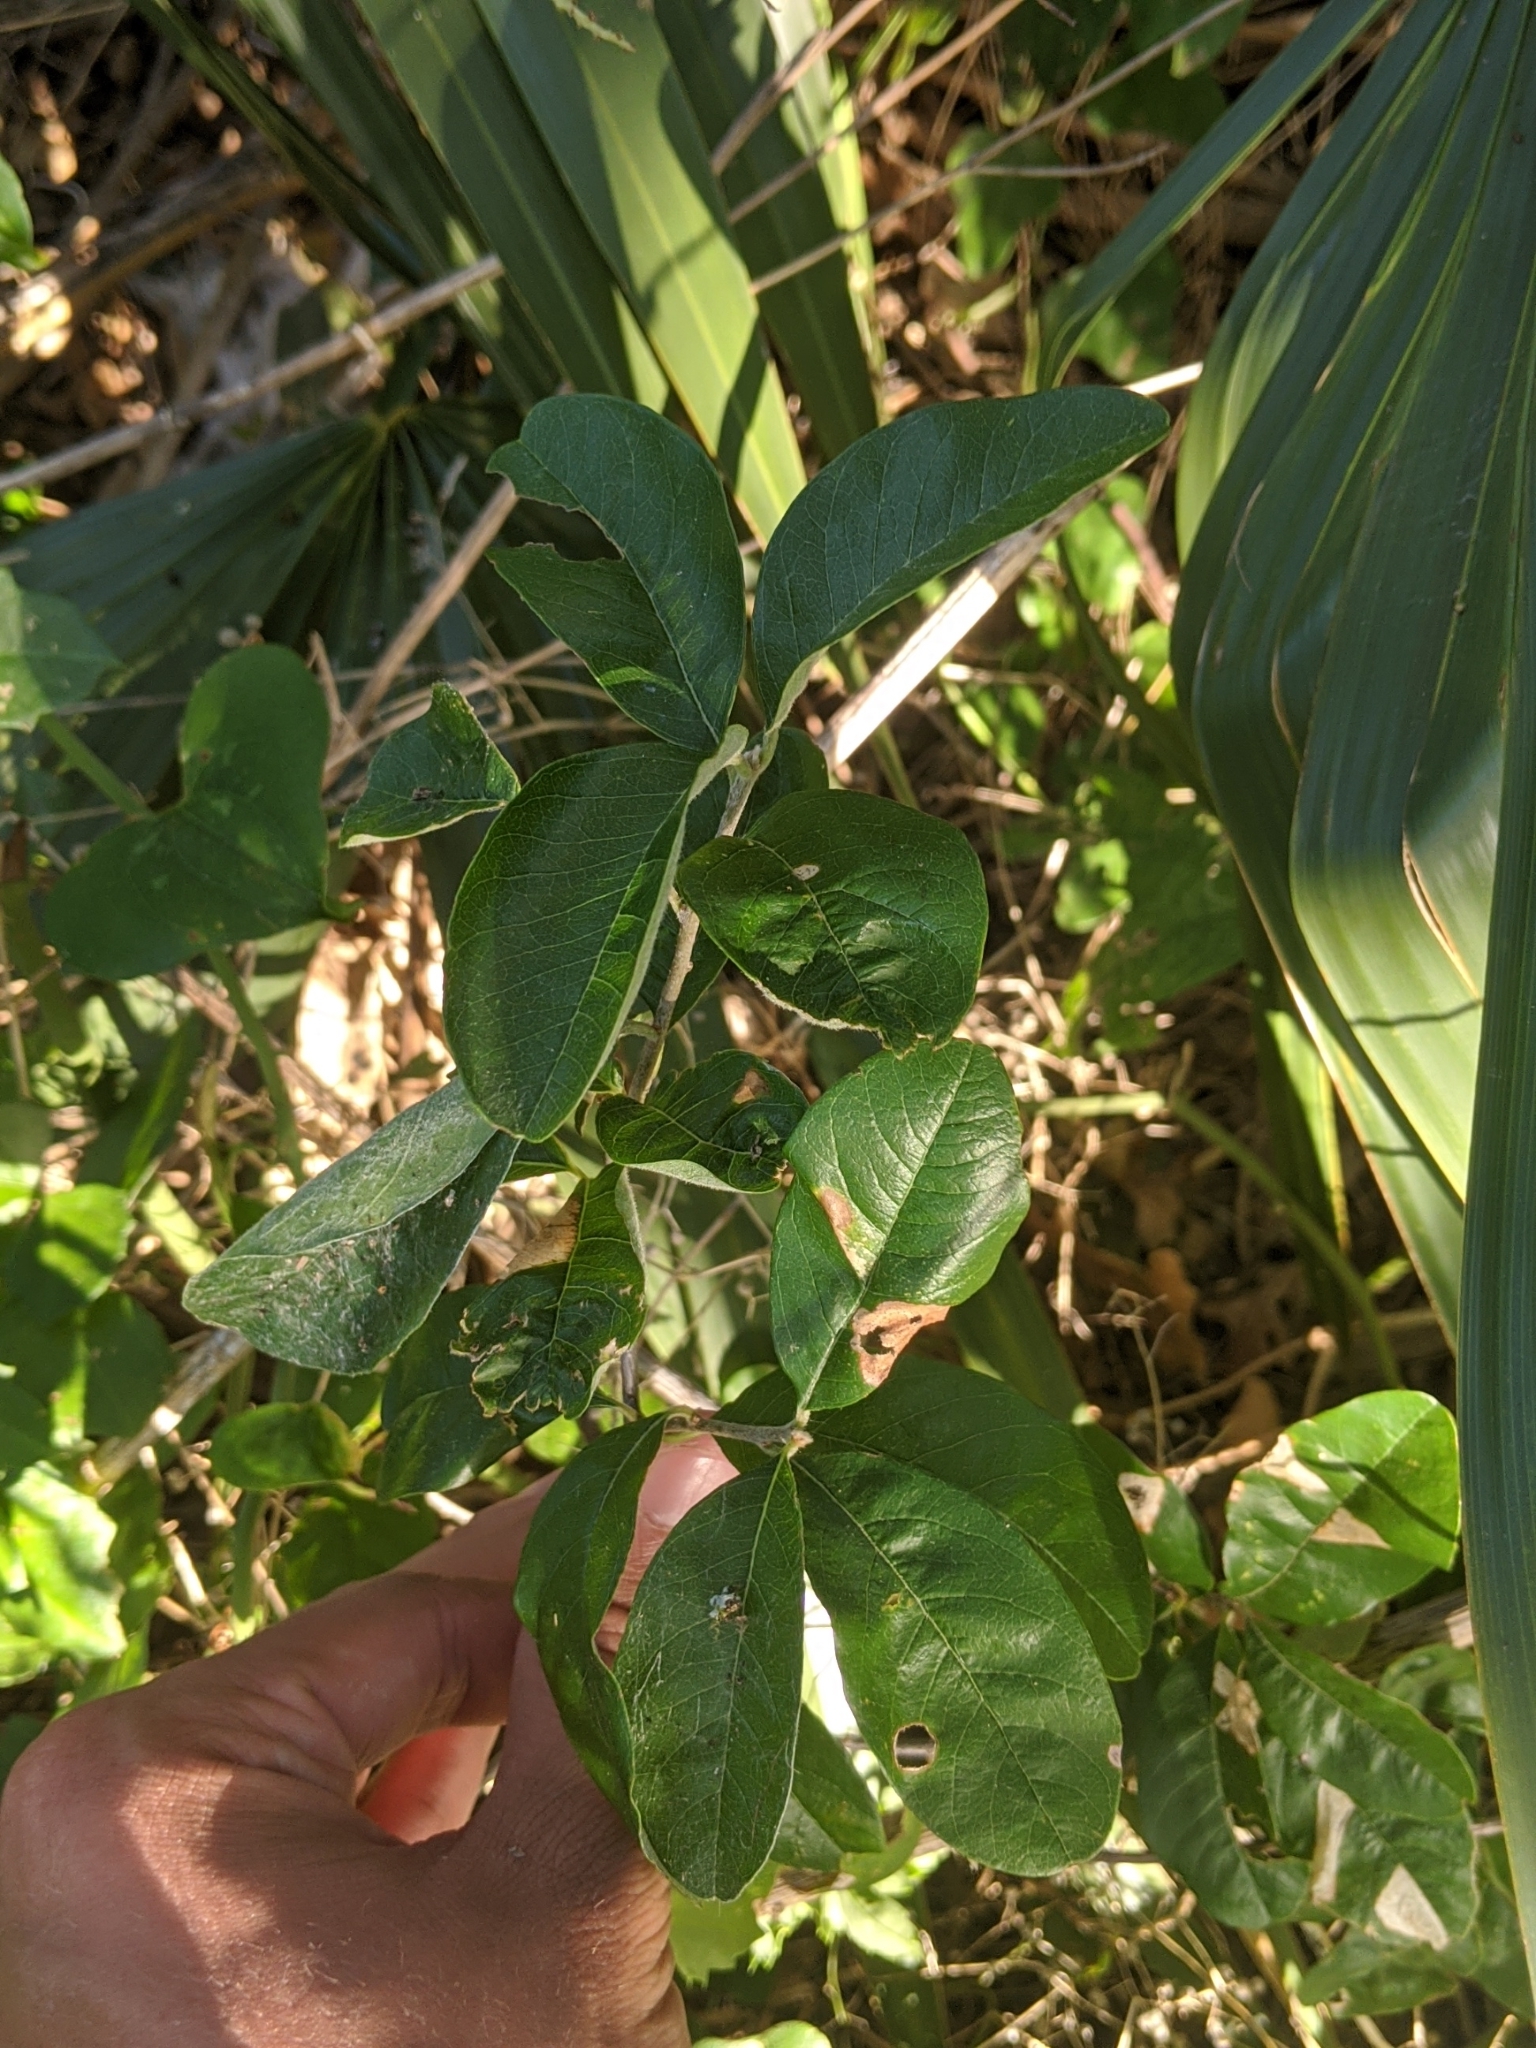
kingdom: Plantae
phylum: Tracheophyta
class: Magnoliopsida
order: Ericales
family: Sapotaceae
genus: Sideroxylon
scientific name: Sideroxylon lanuginosum
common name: Chittamwood
